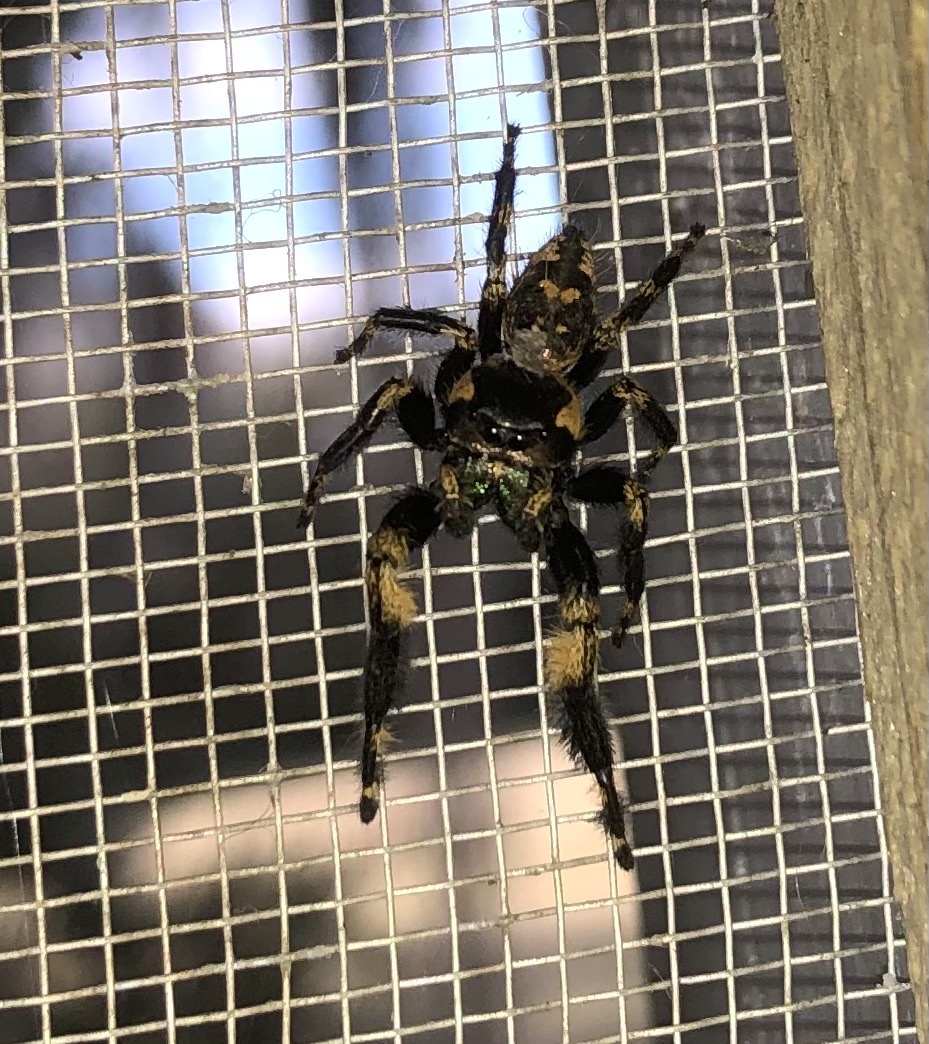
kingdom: Animalia
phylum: Arthropoda
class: Arachnida
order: Araneae
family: Salticidae
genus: Phidippus
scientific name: Phidippus otiosus
